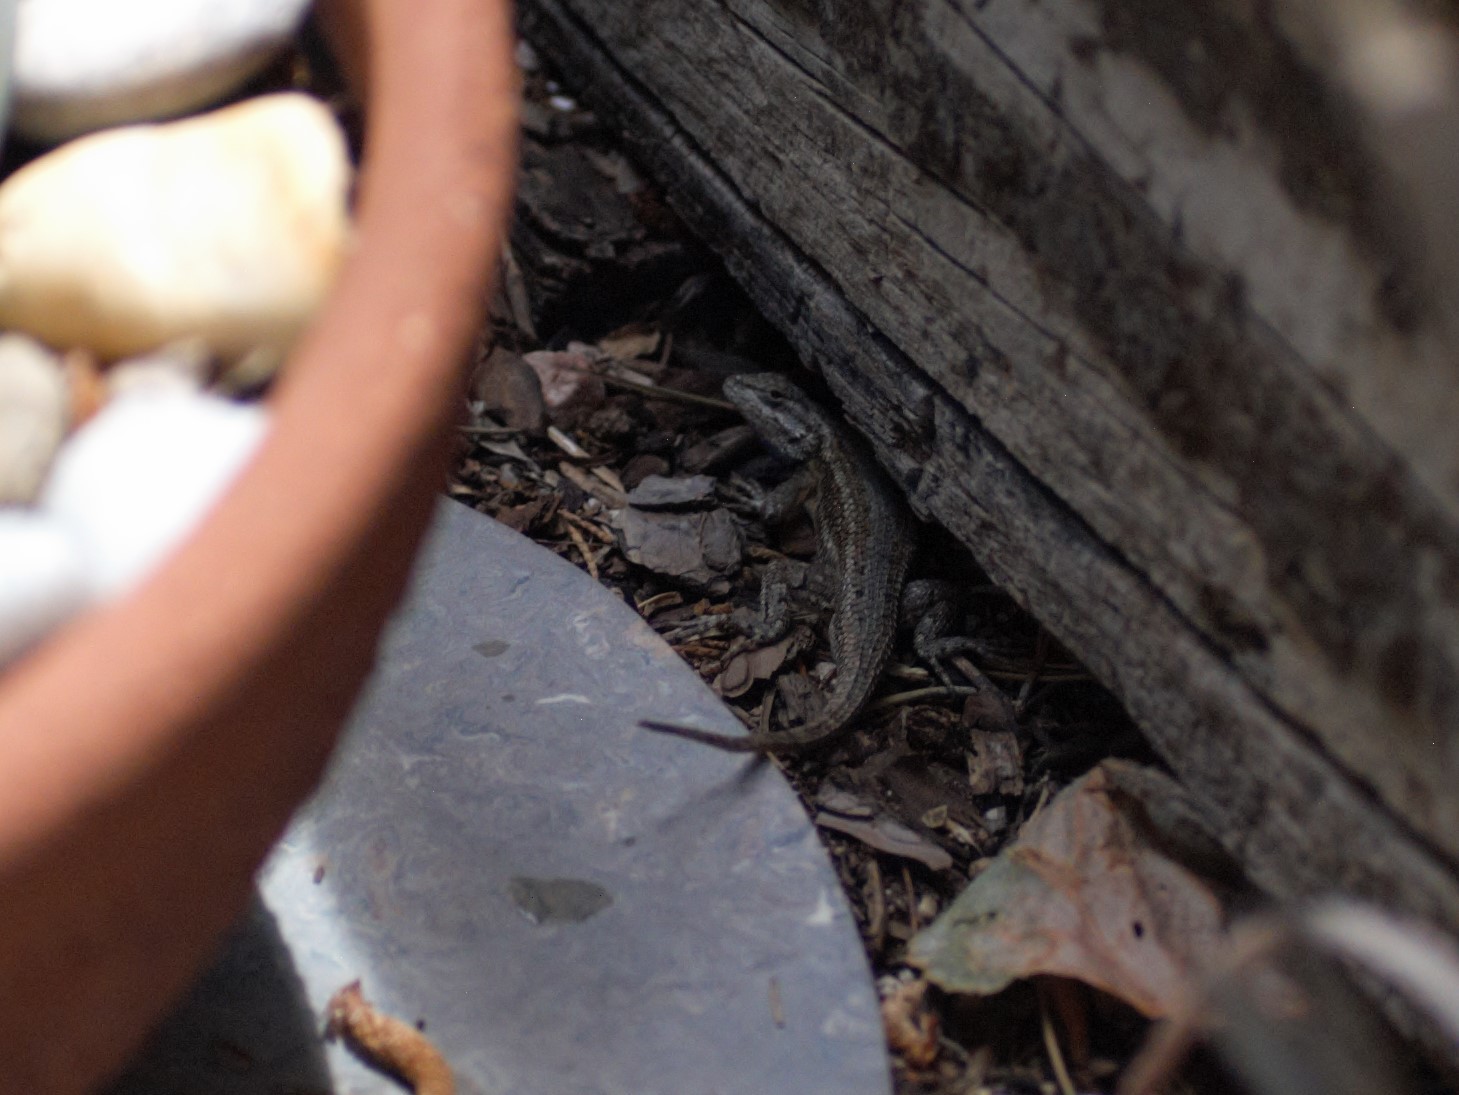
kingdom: Animalia
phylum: Chordata
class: Squamata
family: Phrynosomatidae
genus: Sceloporus
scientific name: Sceloporus cowlesi
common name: White sands prairie lizard
